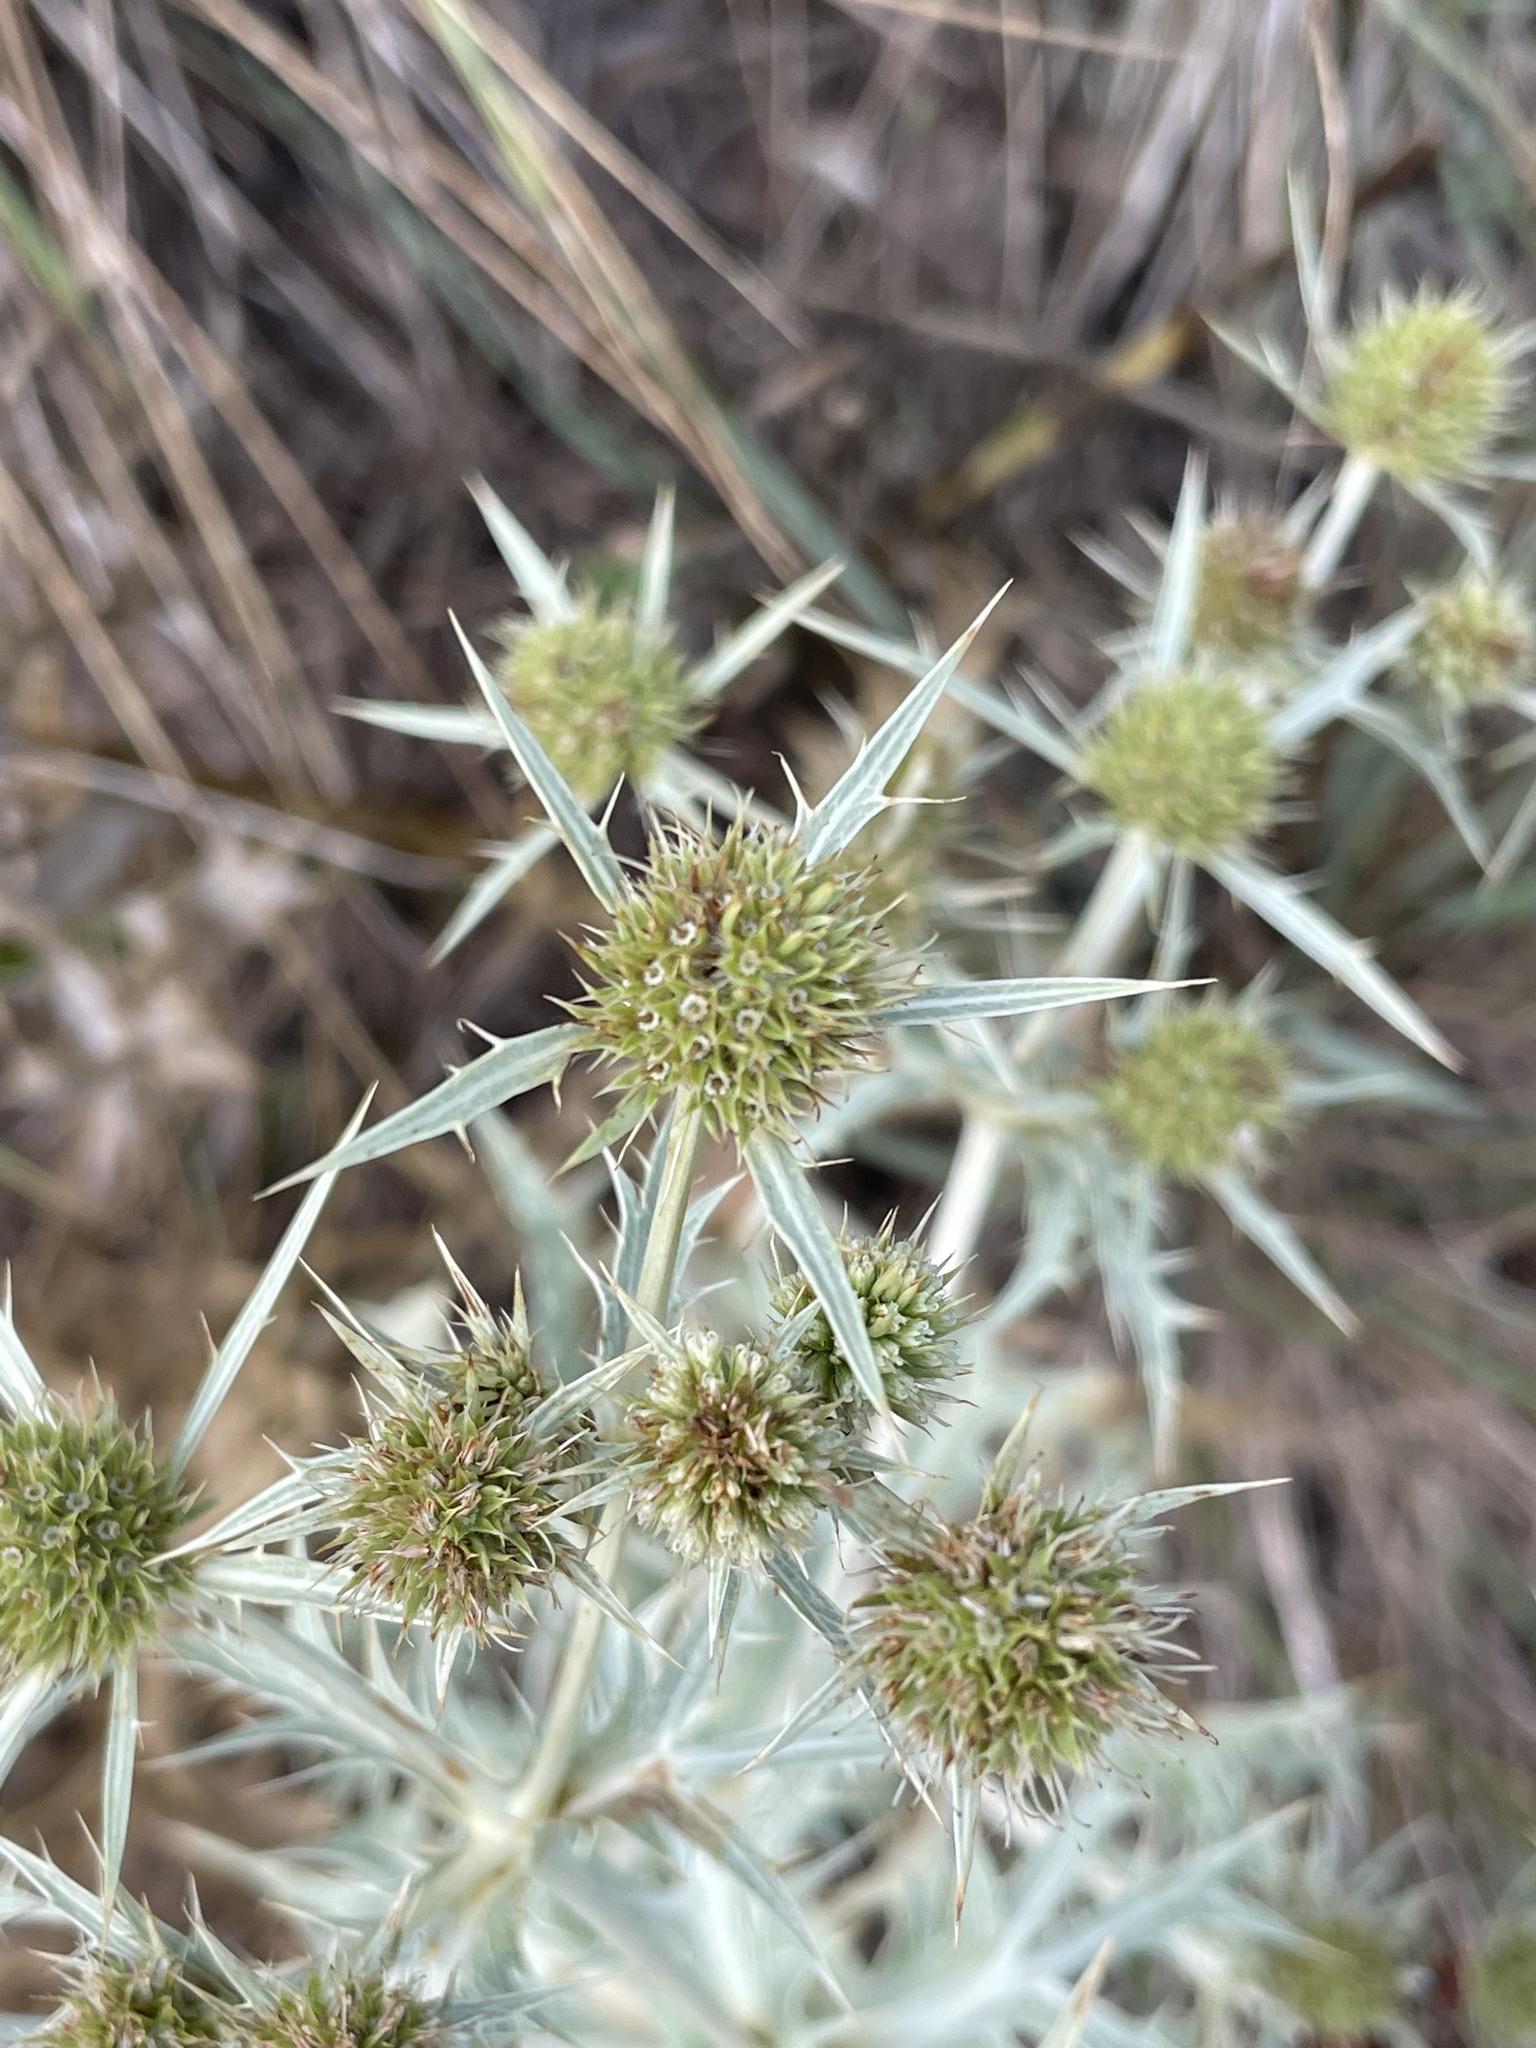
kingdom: Plantae
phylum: Tracheophyta
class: Magnoliopsida
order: Apiales
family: Apiaceae
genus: Eryngium
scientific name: Eryngium campestre
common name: Field eryngo
